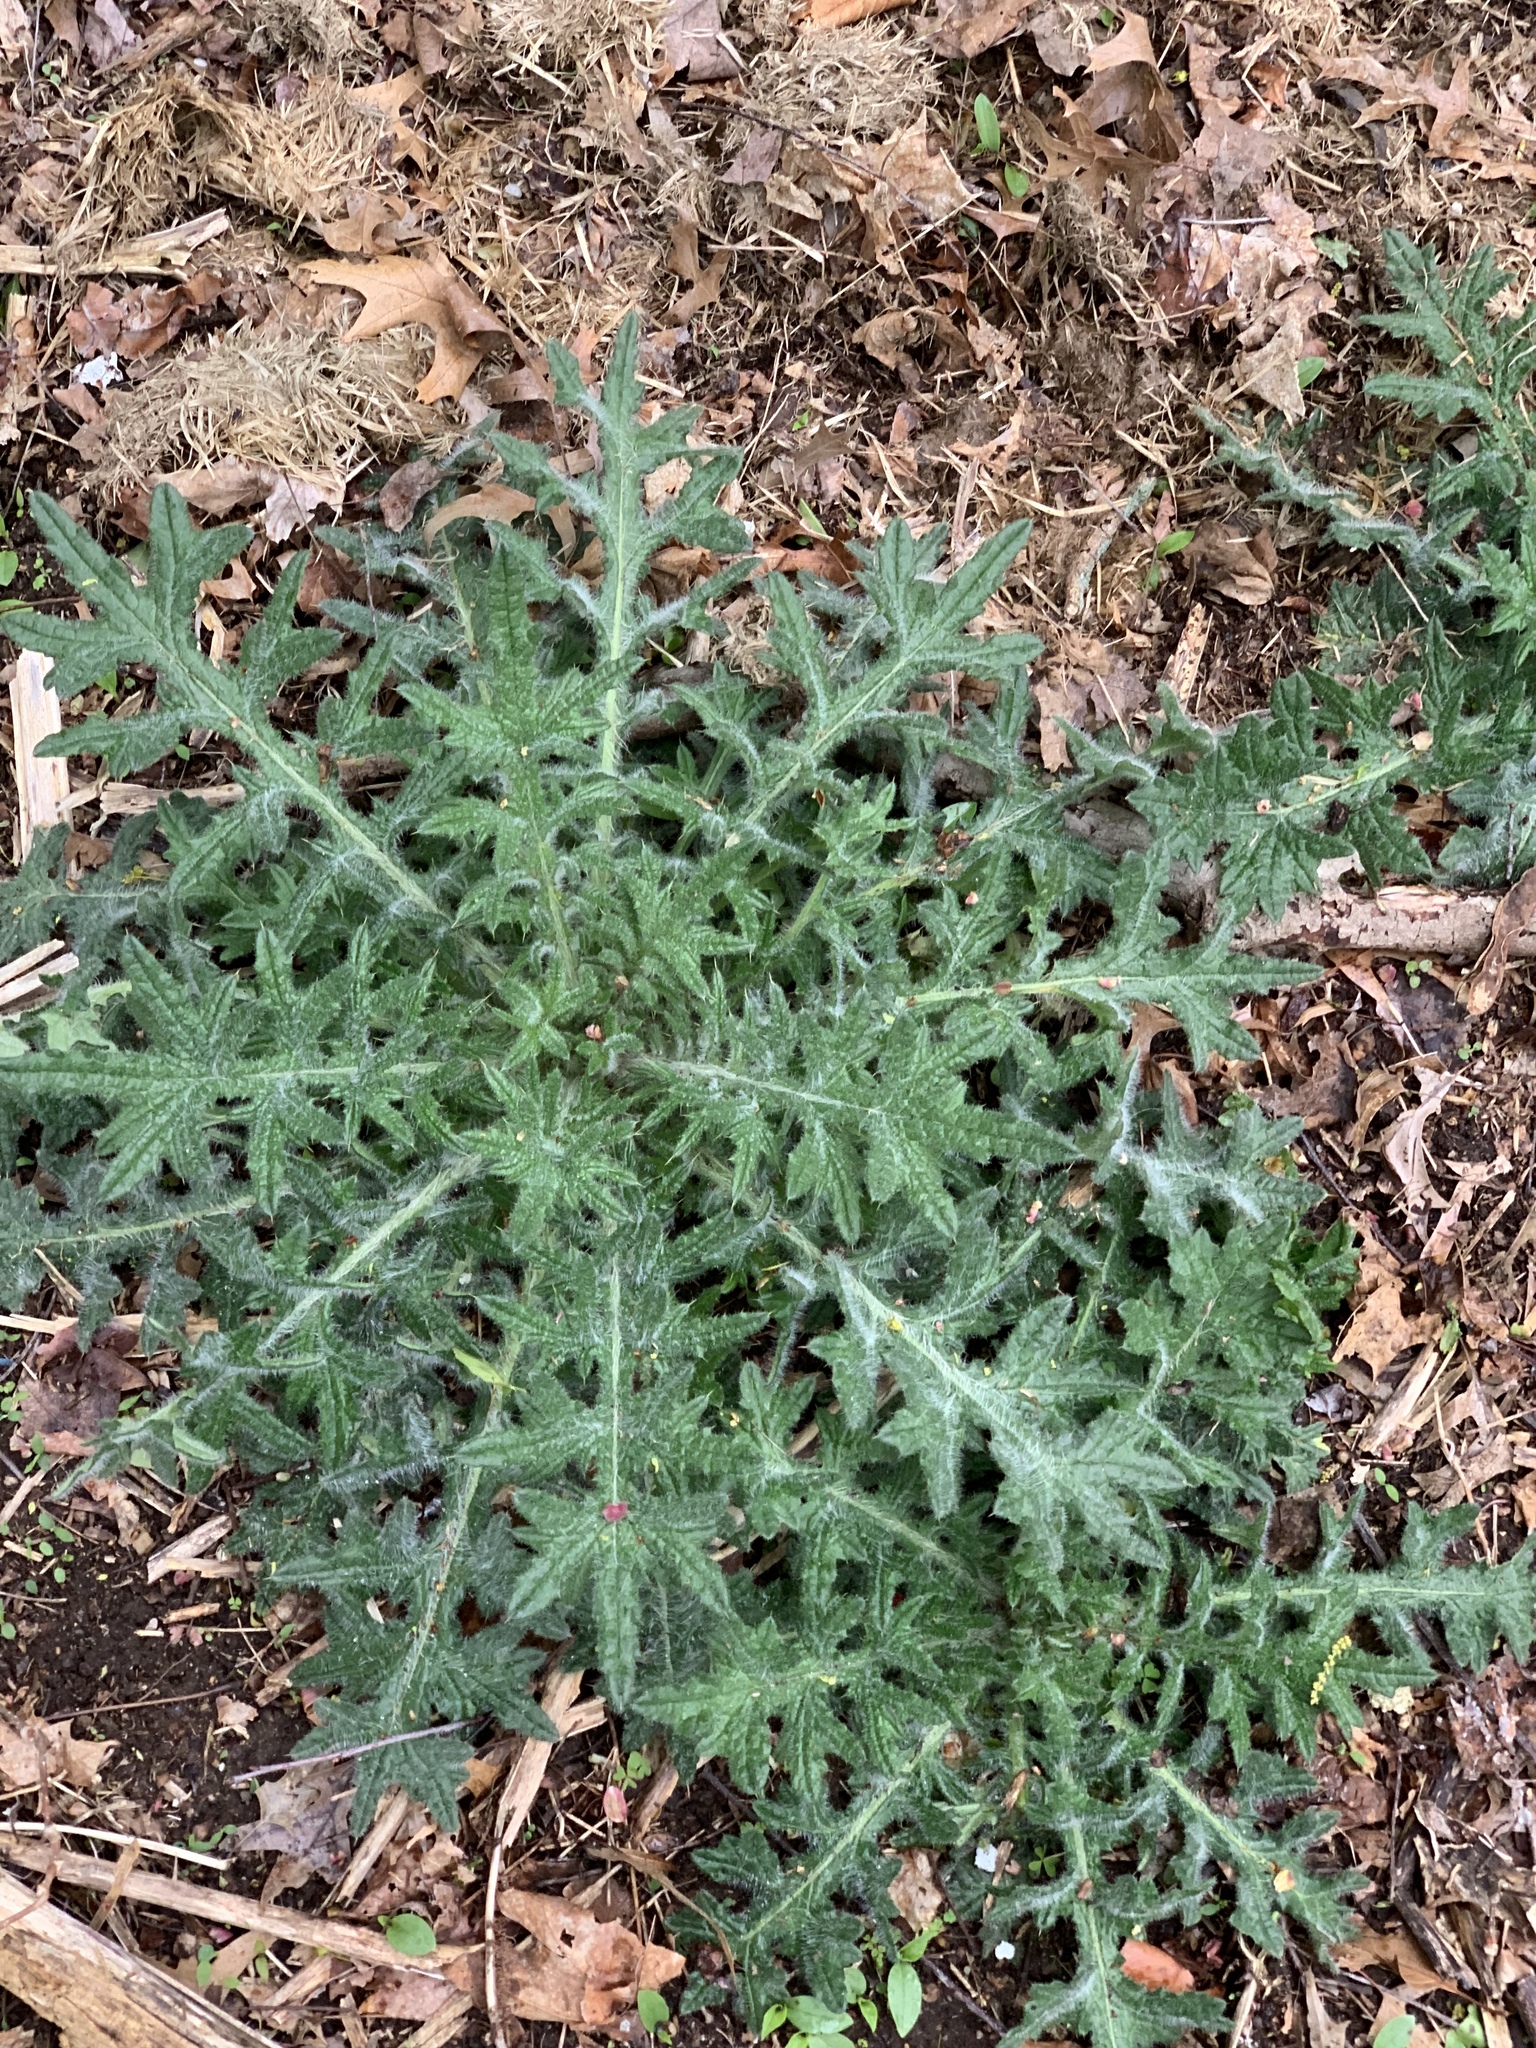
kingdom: Plantae
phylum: Tracheophyta
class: Magnoliopsida
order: Asterales
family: Asteraceae
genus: Cirsium
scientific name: Cirsium vulgare
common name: Bull thistle
